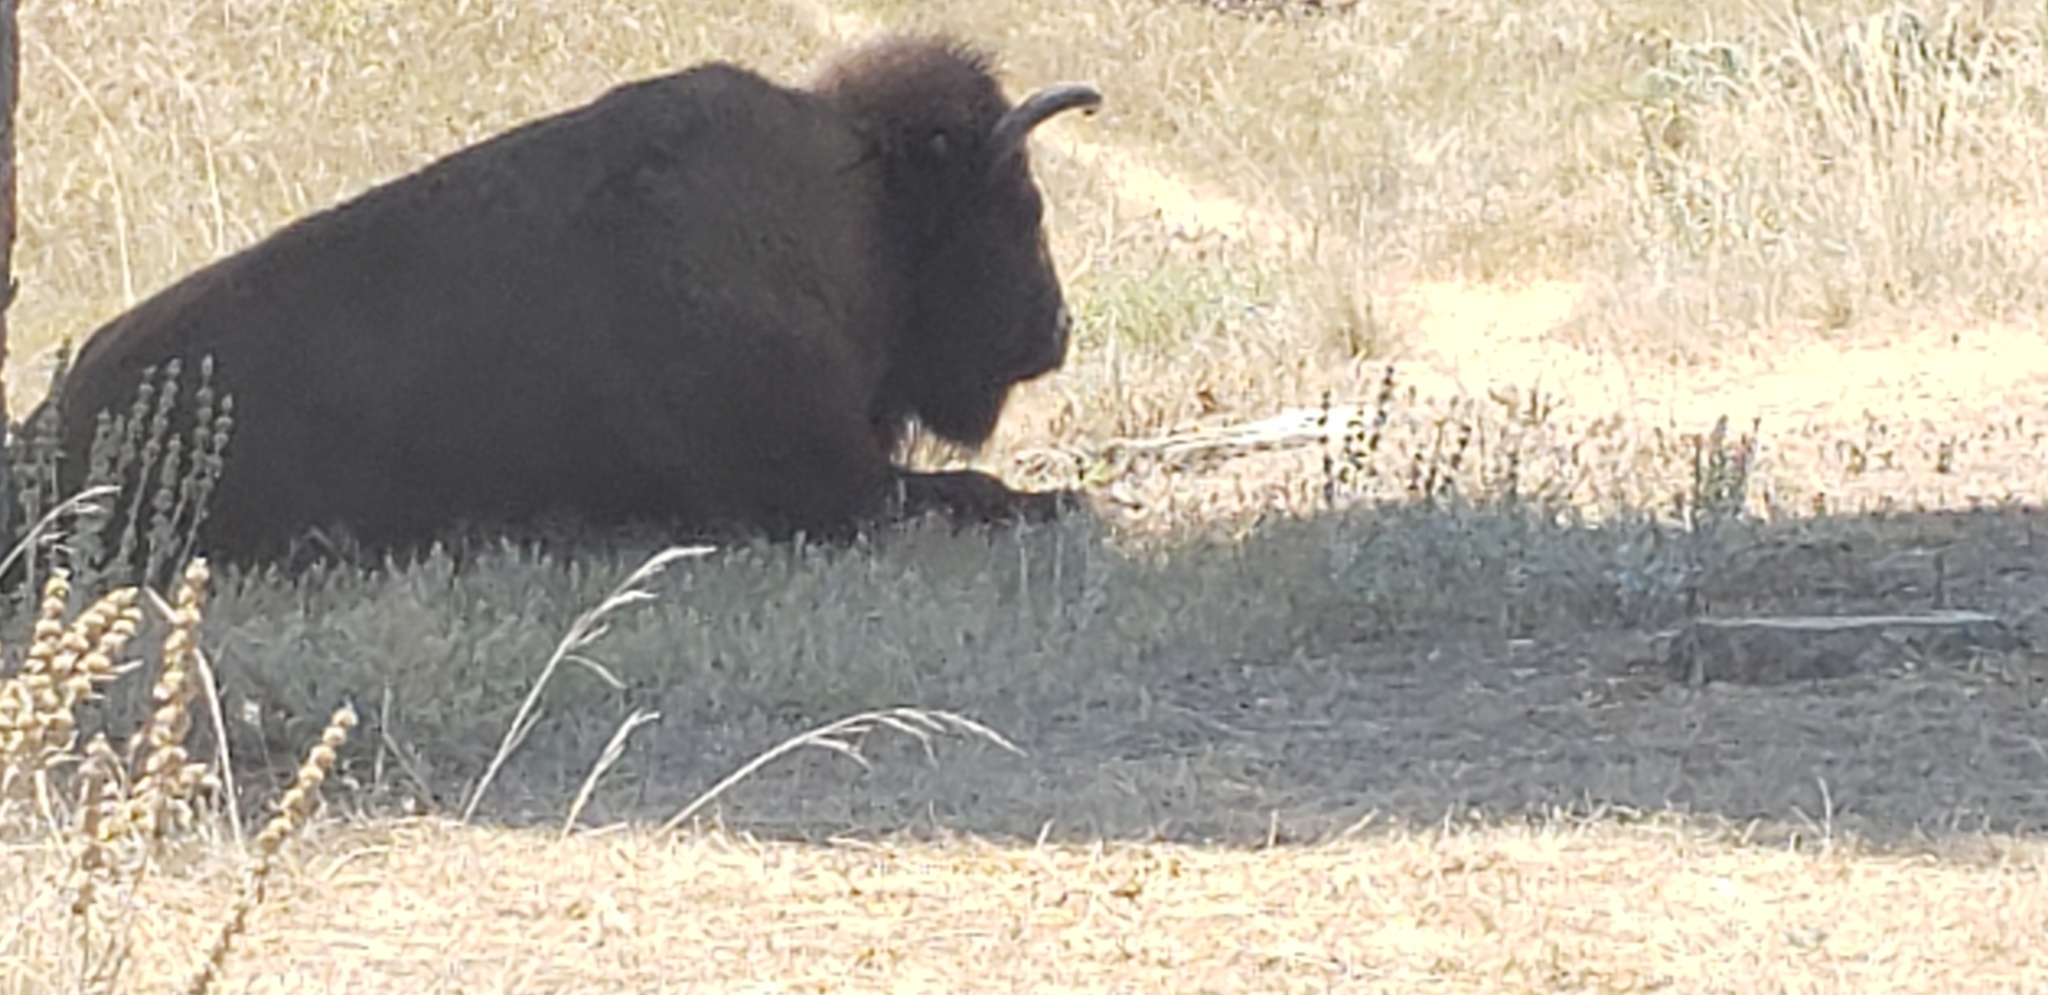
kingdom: Animalia
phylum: Chordata
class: Mammalia
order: Artiodactyla
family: Bovidae
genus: Bison
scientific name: Bison bison
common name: American bison
